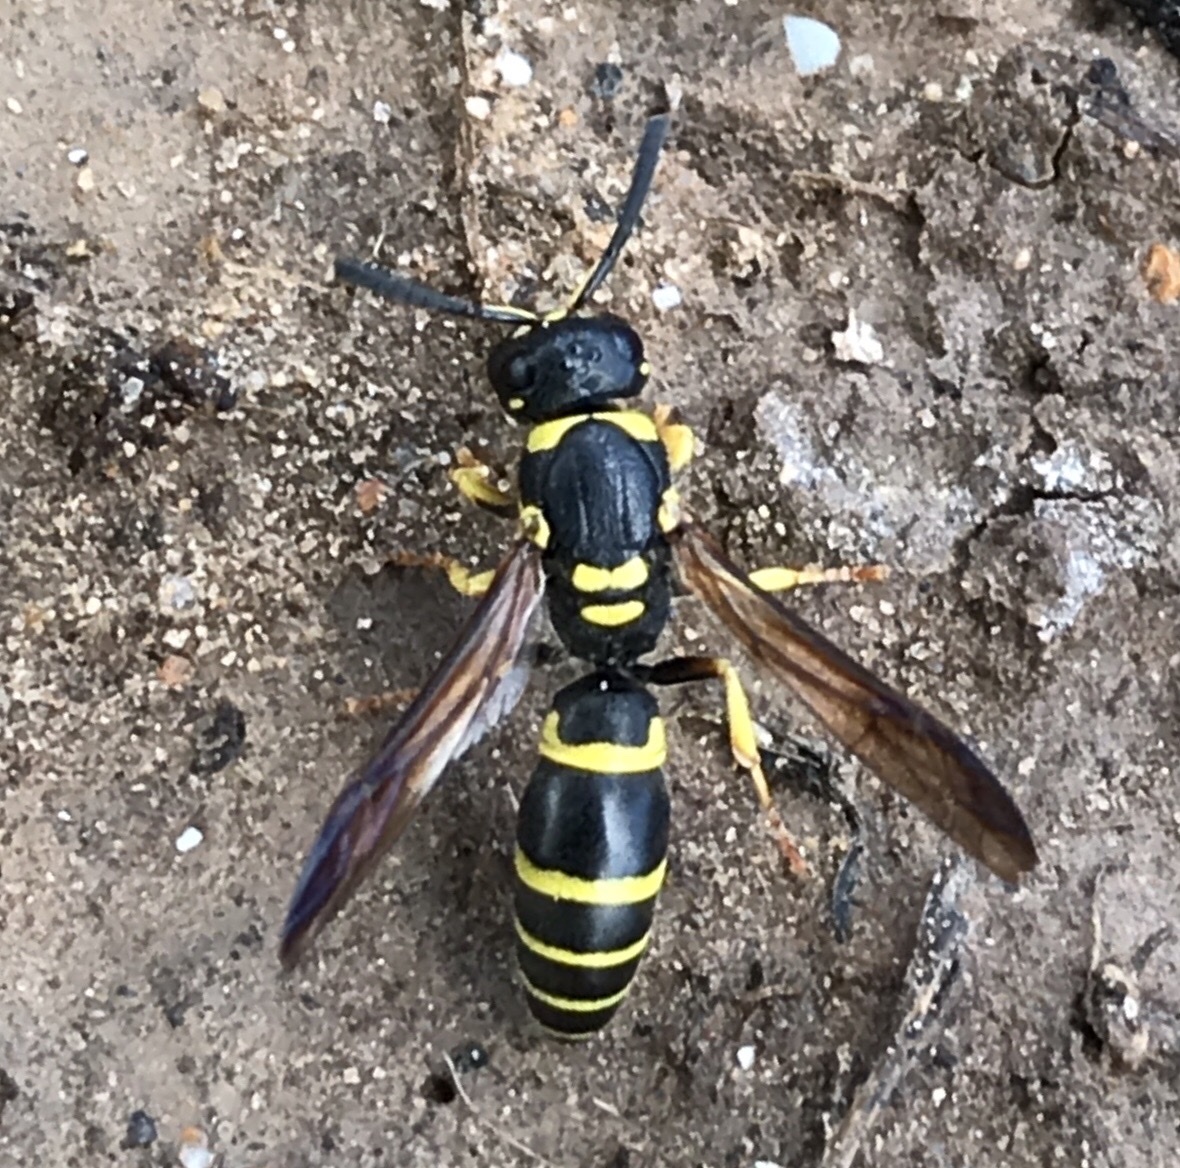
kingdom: Animalia
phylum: Arthropoda
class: Insecta
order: Hymenoptera
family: Vespidae
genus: Ancistrocerus
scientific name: Ancistrocerus adiabatus
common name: Bramble mason wasp
